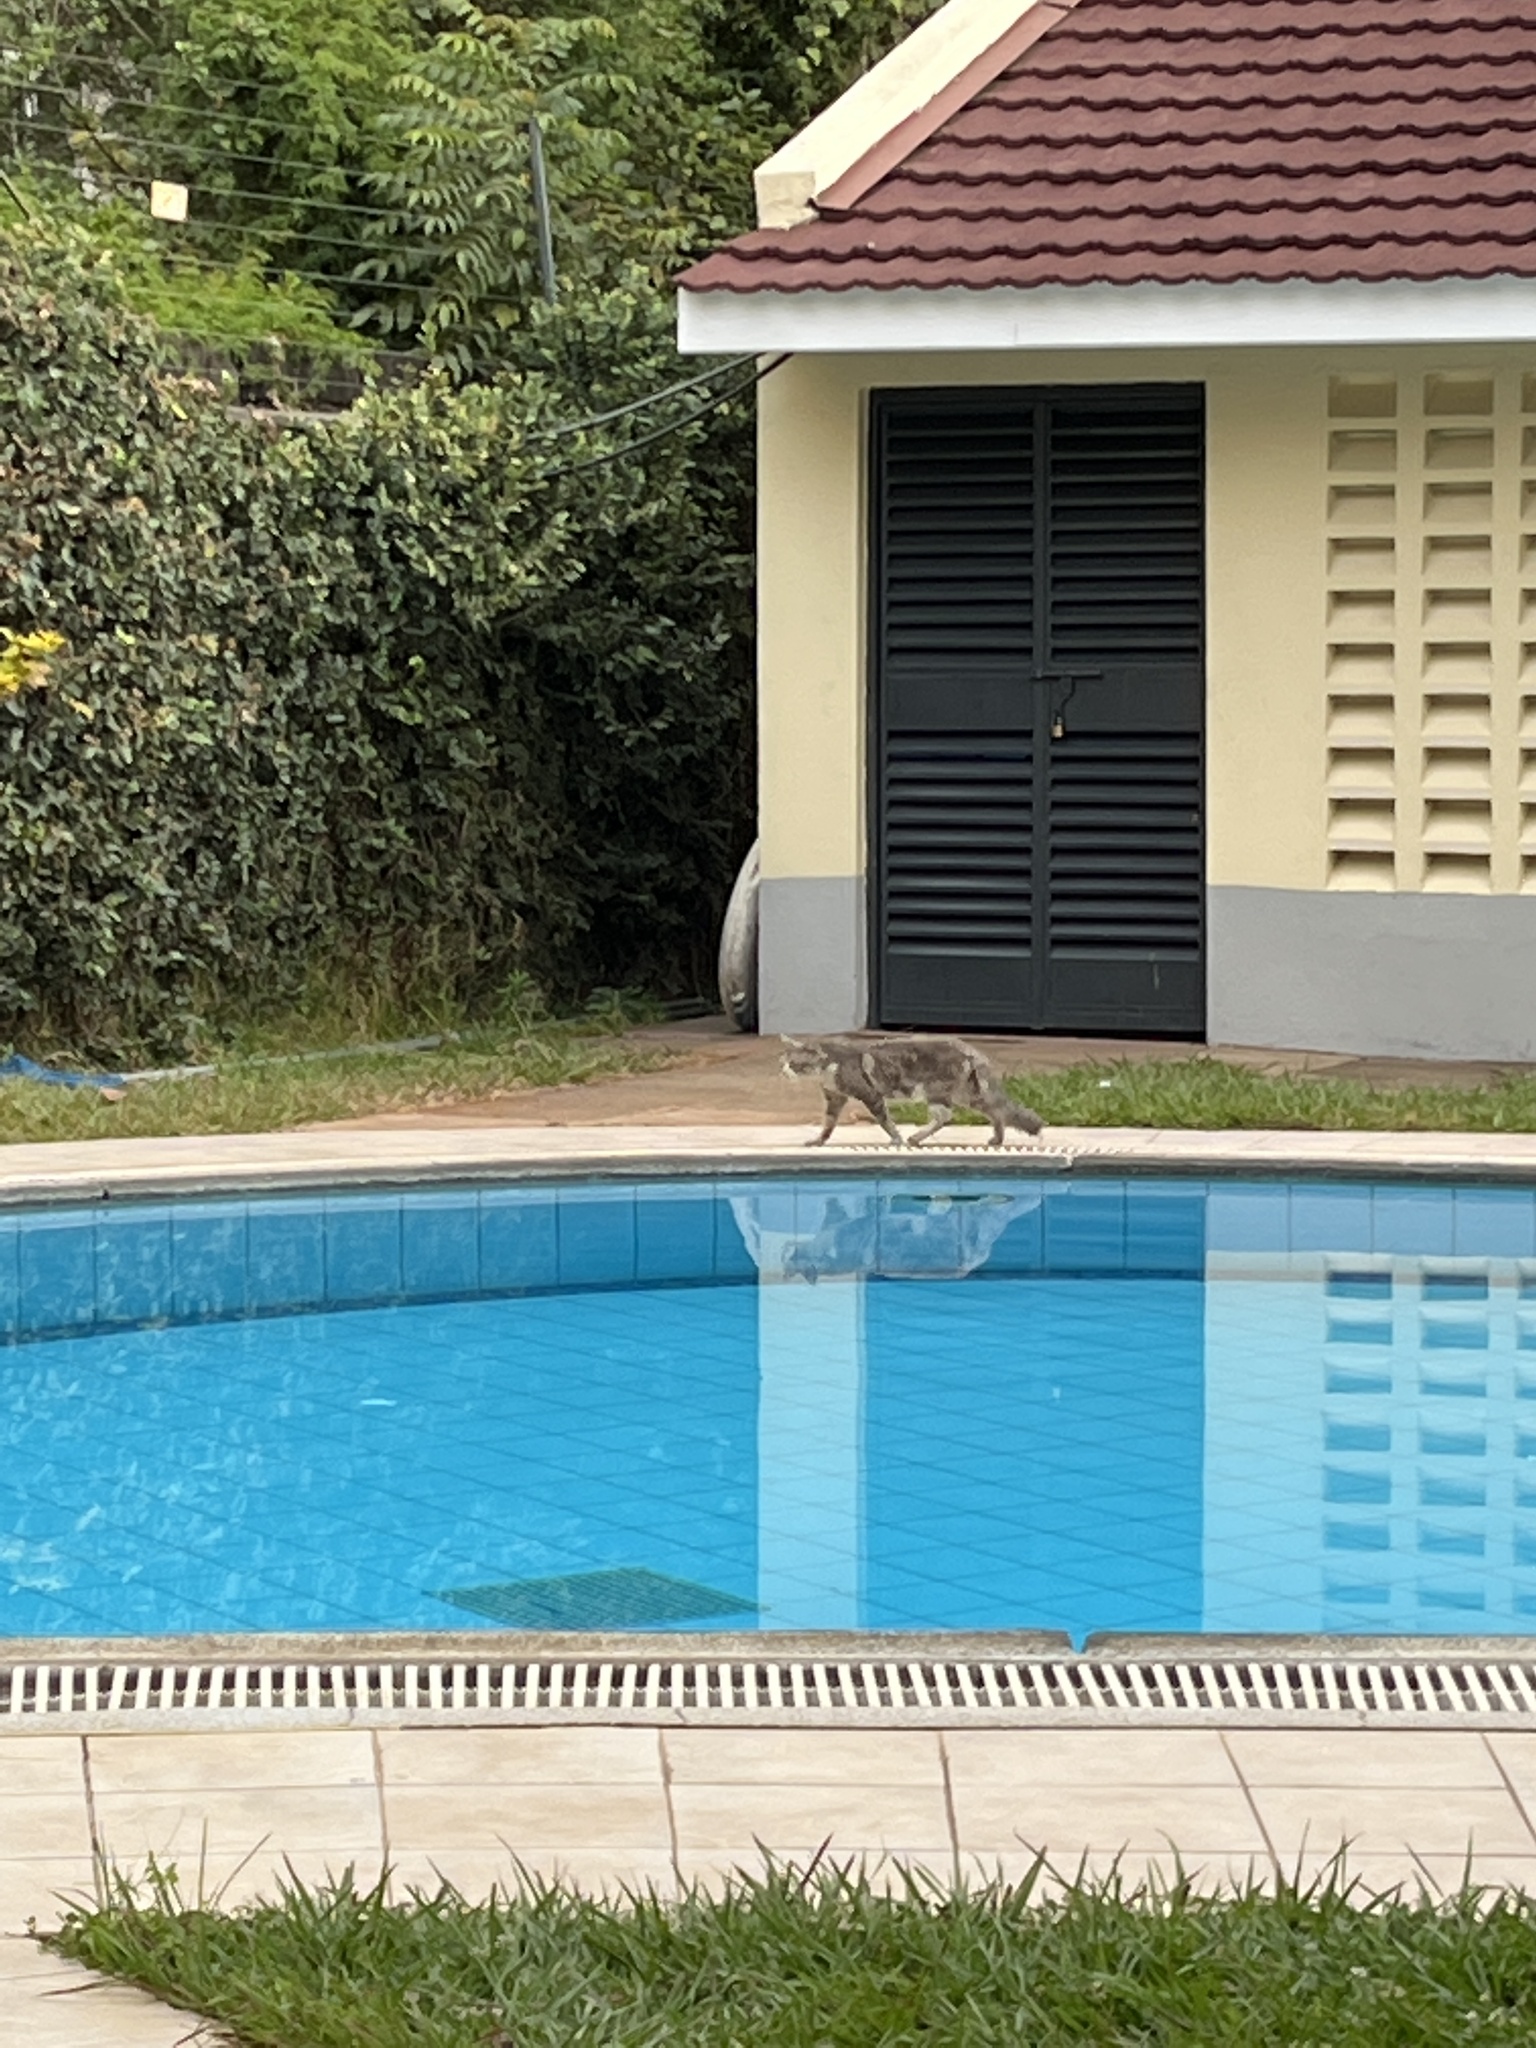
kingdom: Animalia
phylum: Chordata
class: Mammalia
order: Carnivora
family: Felidae
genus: Felis
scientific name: Felis catus
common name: Domestic cat
